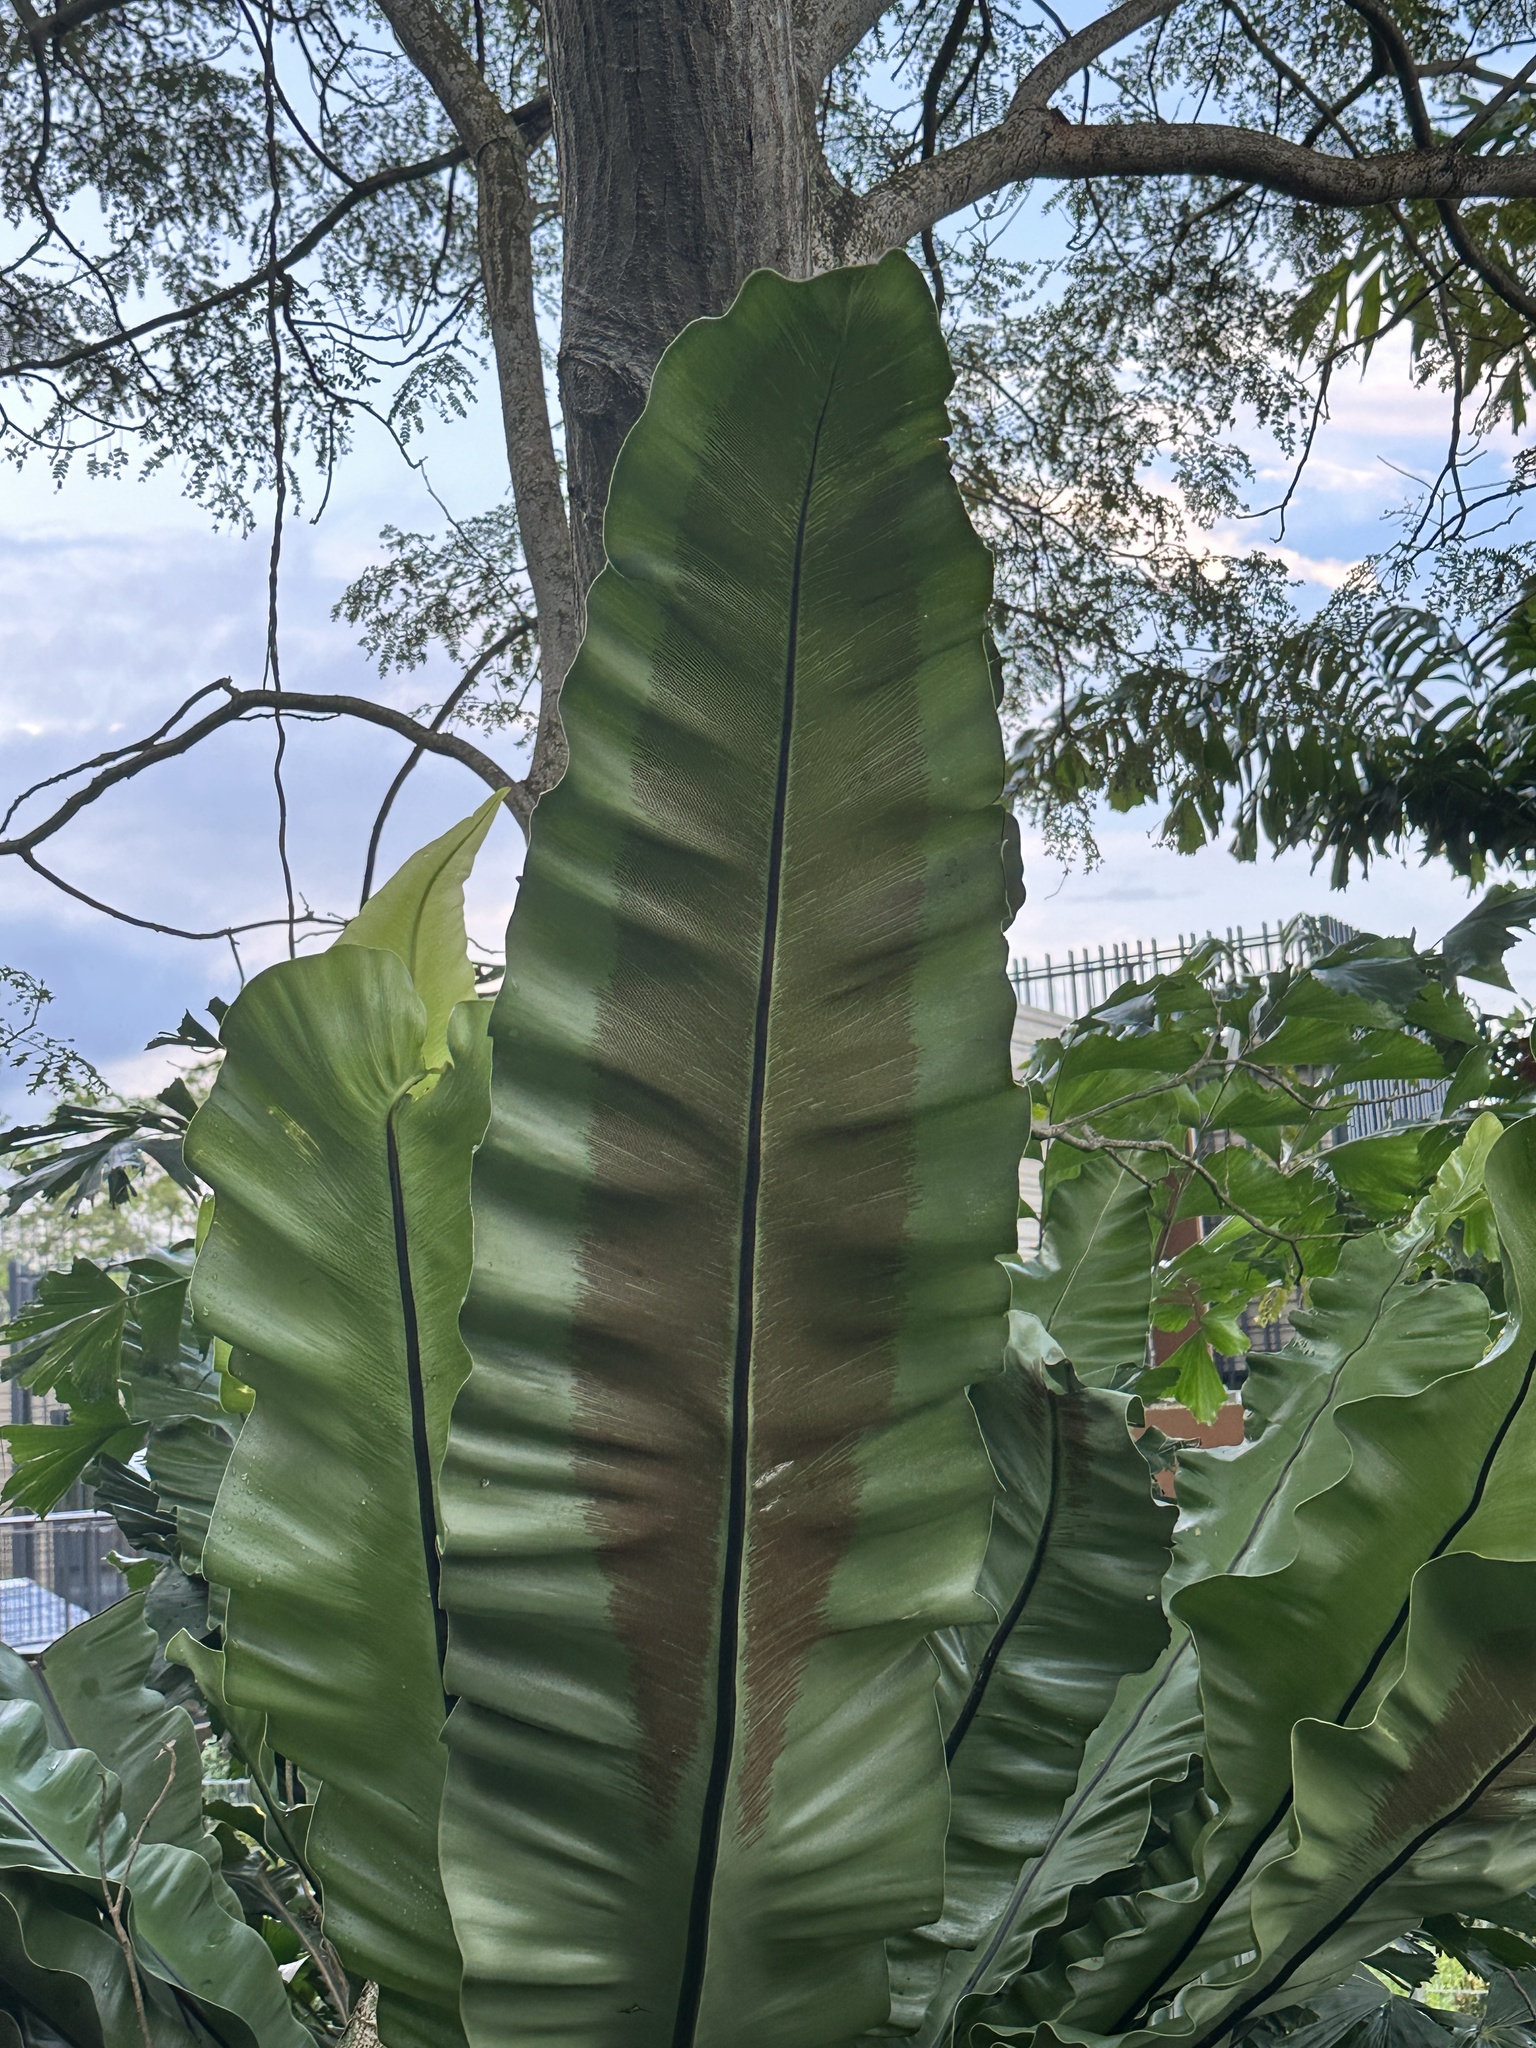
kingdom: Plantae
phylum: Tracheophyta
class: Polypodiopsida
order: Polypodiales
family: Aspleniaceae
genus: Asplenium
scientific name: Asplenium musifolium
